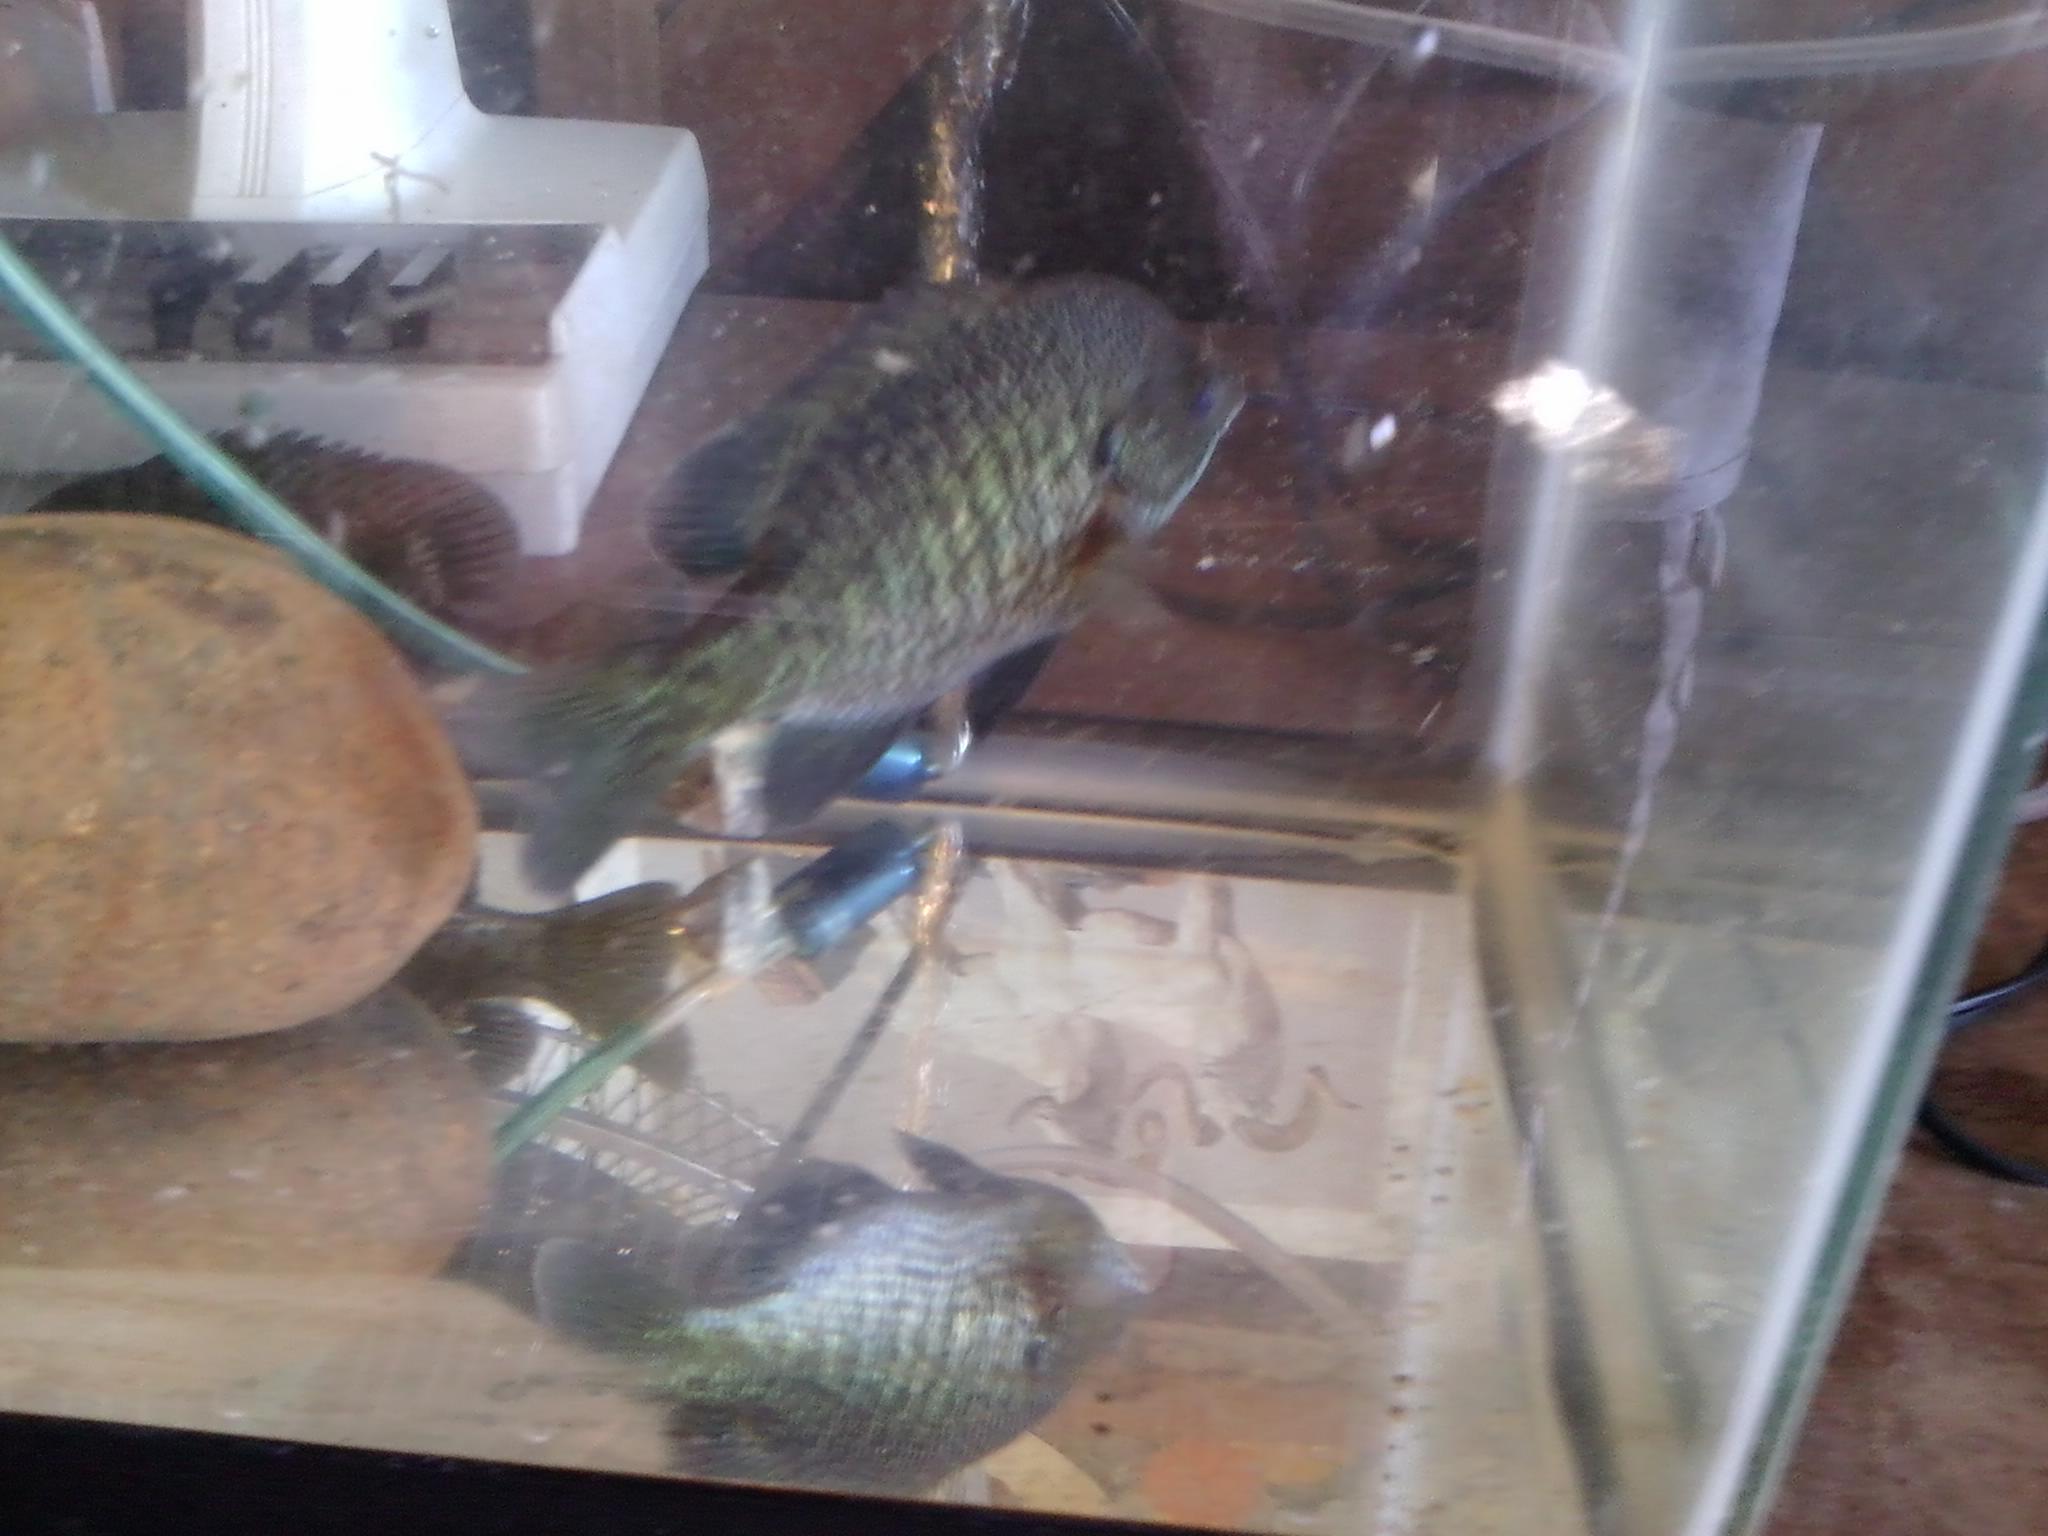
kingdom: Animalia
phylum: Chordata
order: Perciformes
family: Centrarchidae
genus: Lepomis
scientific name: Lepomis macrochirus
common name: Bluegill
